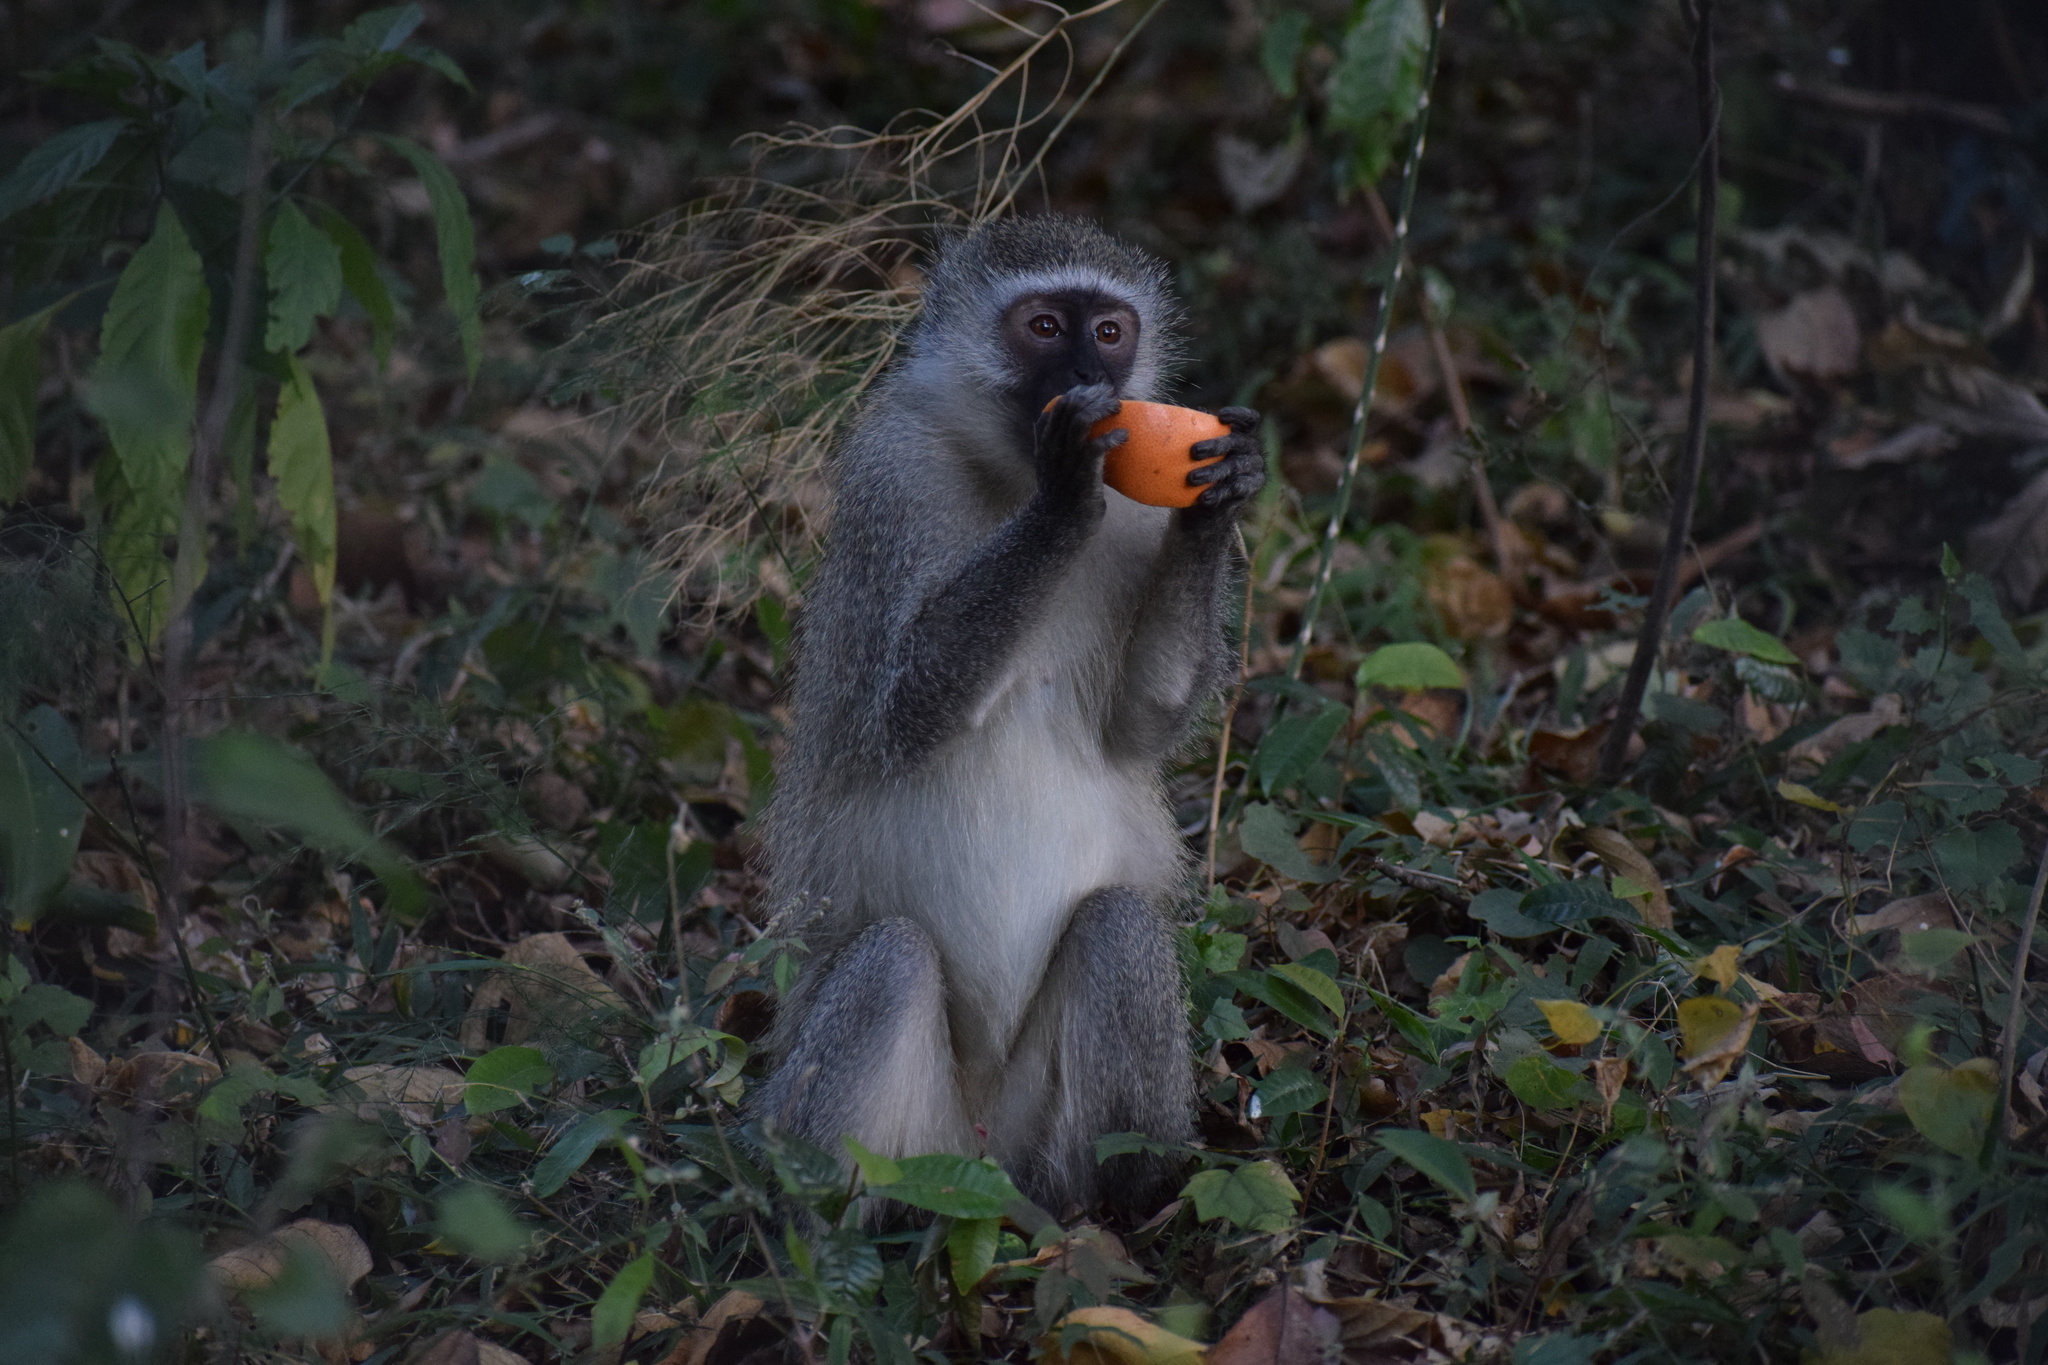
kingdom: Animalia
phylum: Chordata
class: Mammalia
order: Primates
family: Cercopithecidae
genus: Chlorocebus
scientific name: Chlorocebus pygerythrus
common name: Vervet monkey
